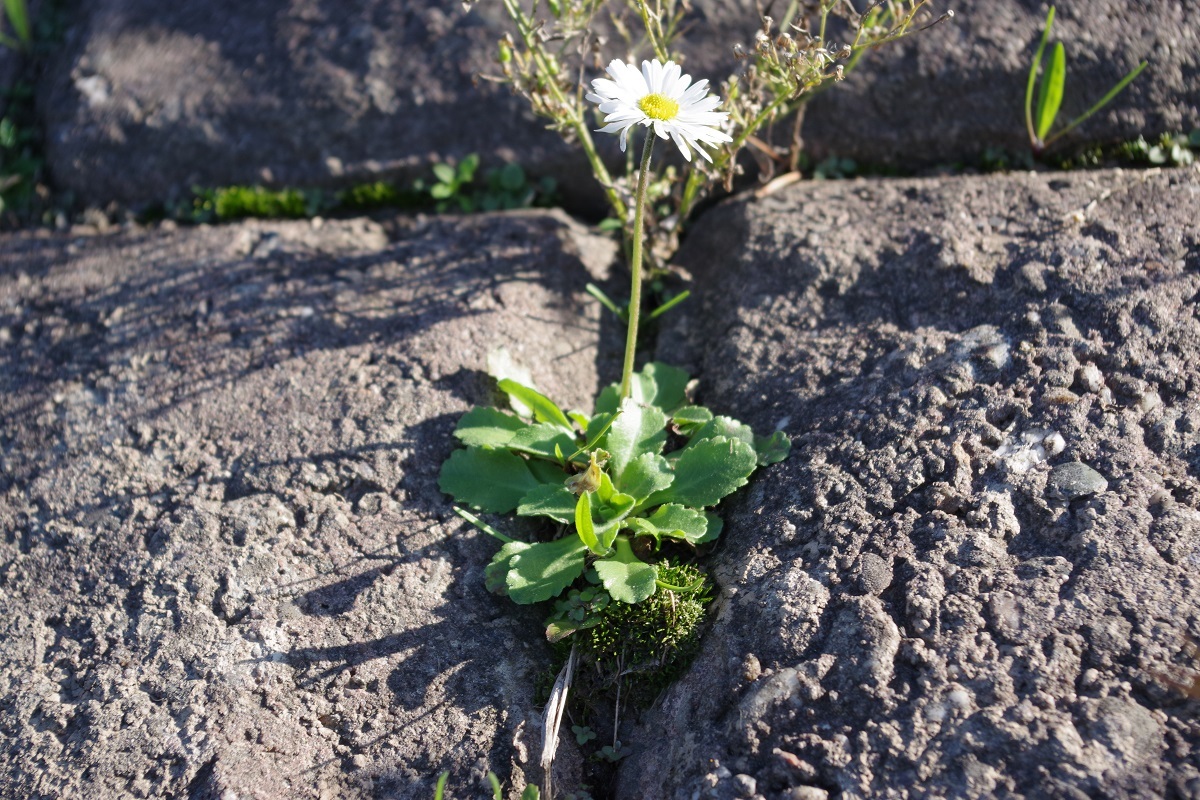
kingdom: Plantae
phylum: Tracheophyta
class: Magnoliopsida
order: Asterales
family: Asteraceae
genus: Bellis
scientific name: Bellis perennis
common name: Lawndaisy
